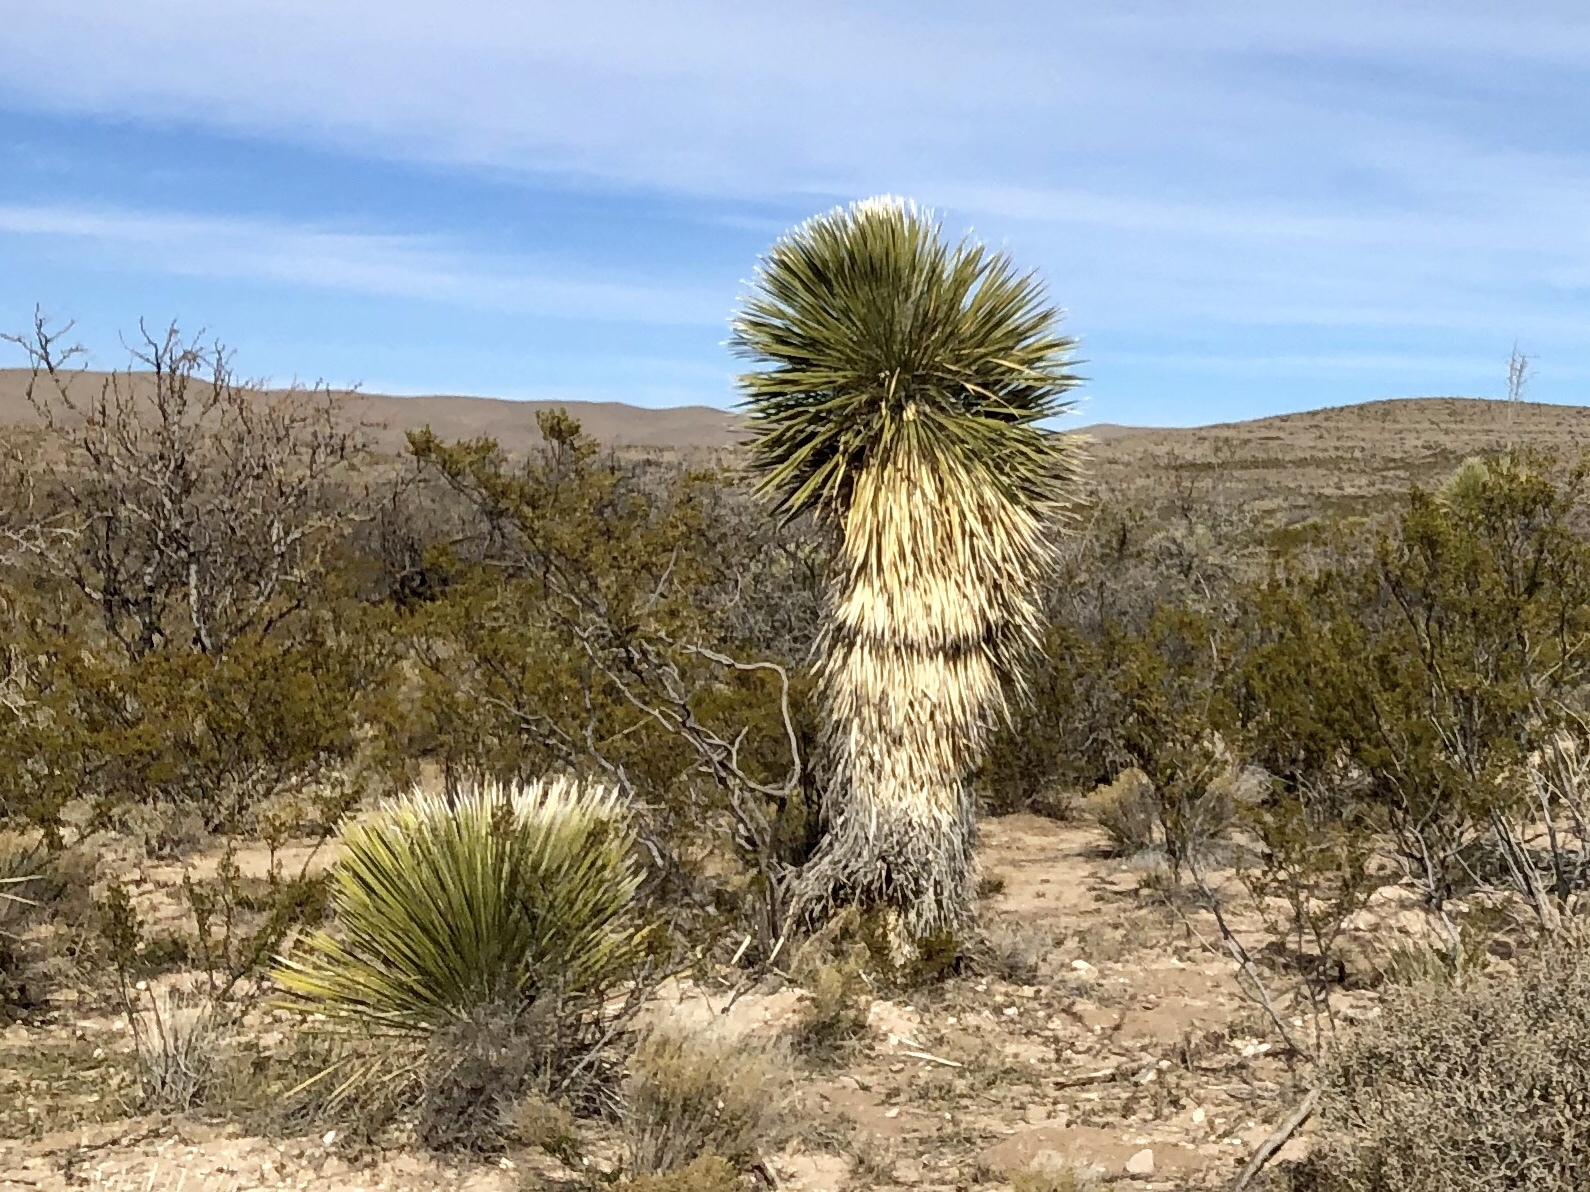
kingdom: Plantae
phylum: Tracheophyta
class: Liliopsida
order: Asparagales
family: Asparagaceae
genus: Yucca
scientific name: Yucca elata
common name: Palmella
